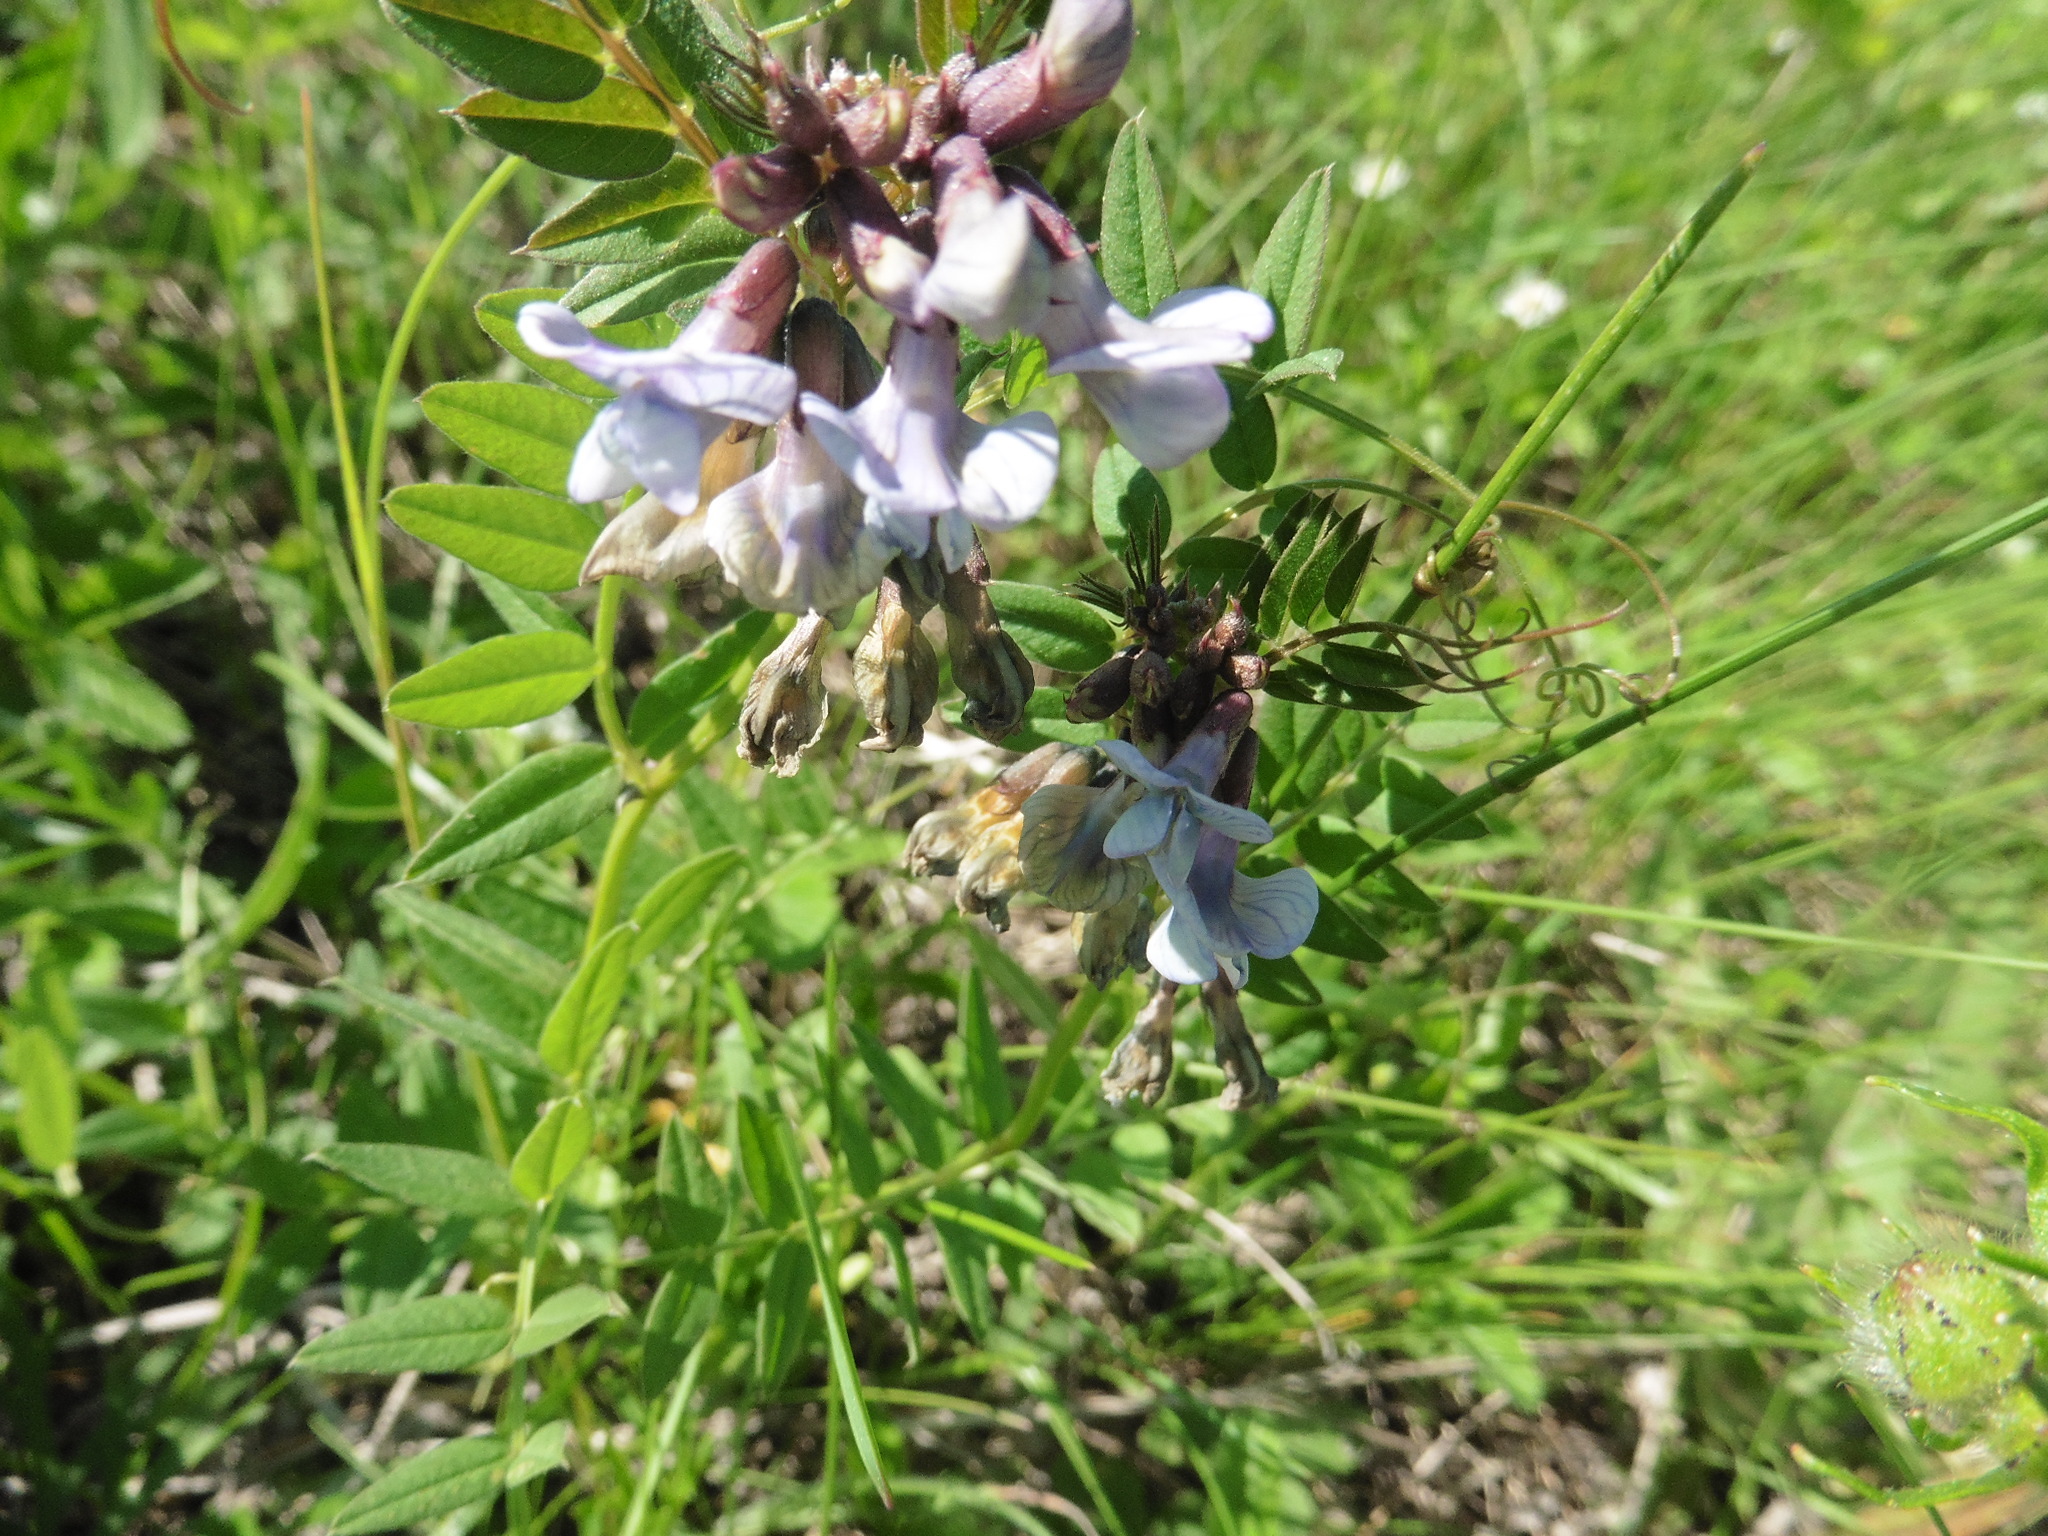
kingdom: Plantae
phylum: Tracheophyta
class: Magnoliopsida
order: Fabales
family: Fabaceae
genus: Vicia
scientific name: Vicia sepium
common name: Bush vetch
